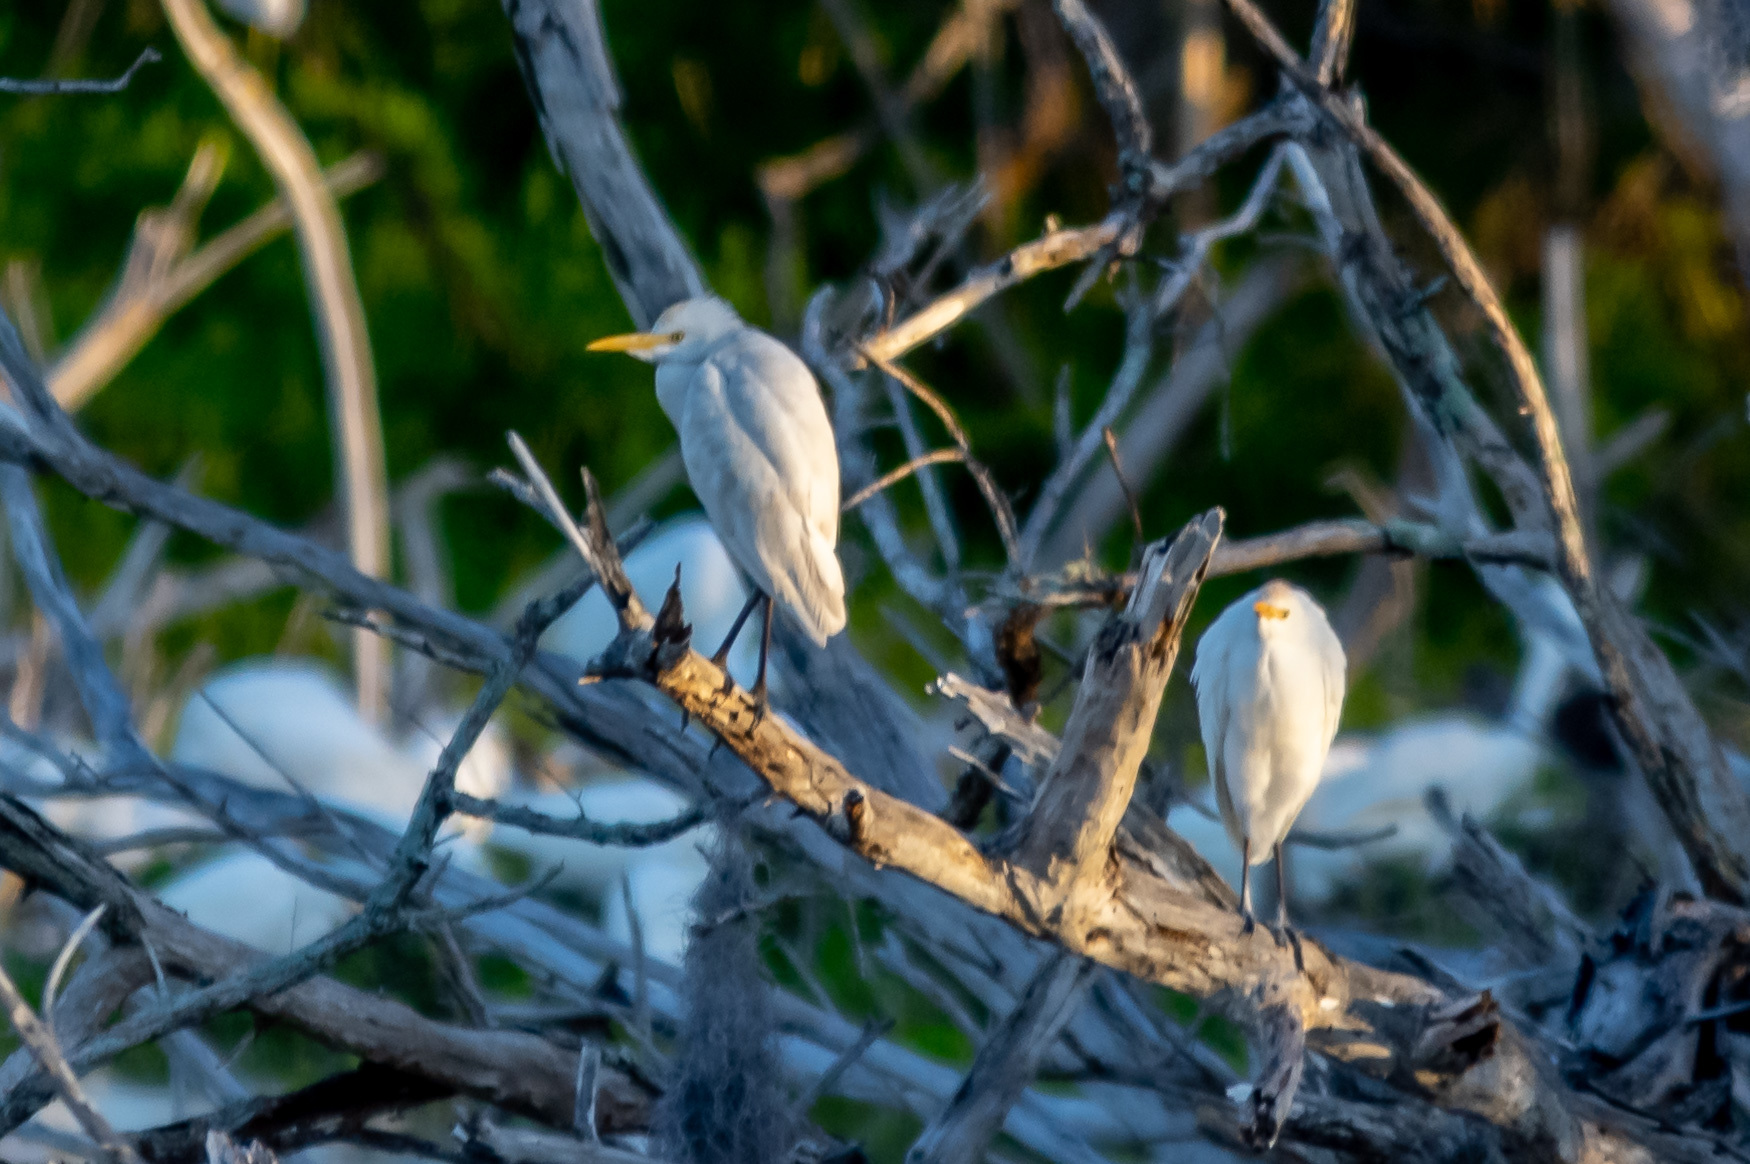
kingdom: Animalia
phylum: Chordata
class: Aves
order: Pelecaniformes
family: Ardeidae
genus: Bubulcus
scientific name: Bubulcus ibis
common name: Cattle egret
